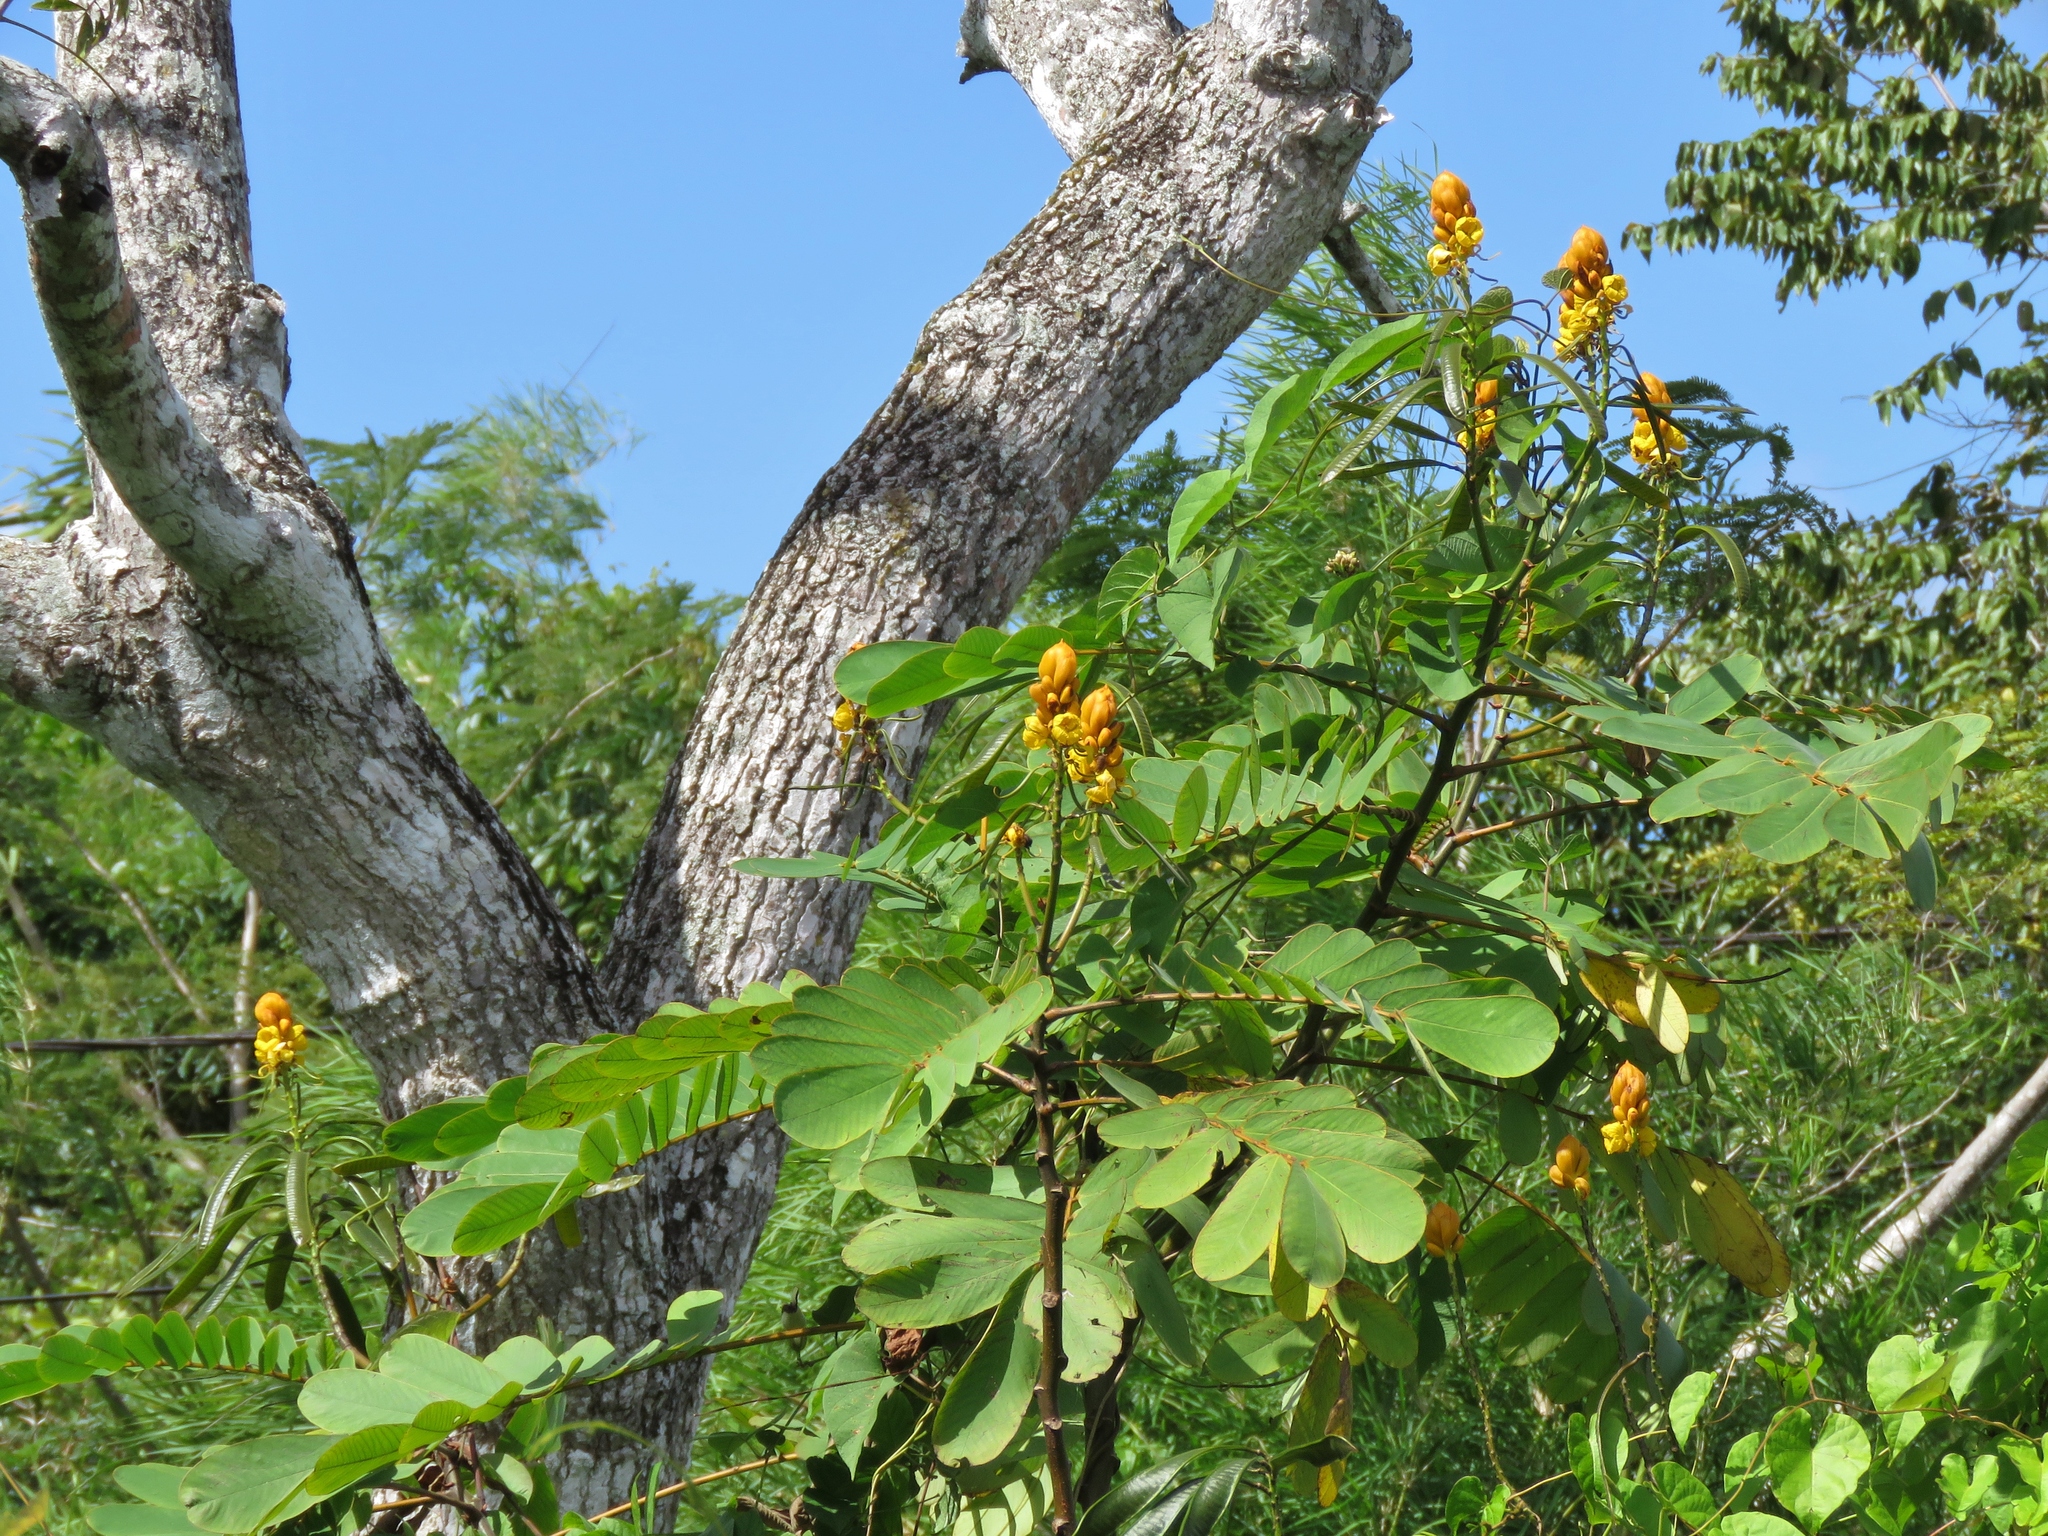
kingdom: Plantae
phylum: Tracheophyta
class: Magnoliopsida
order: Fabales
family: Fabaceae
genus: Senna
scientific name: Senna reticulata
